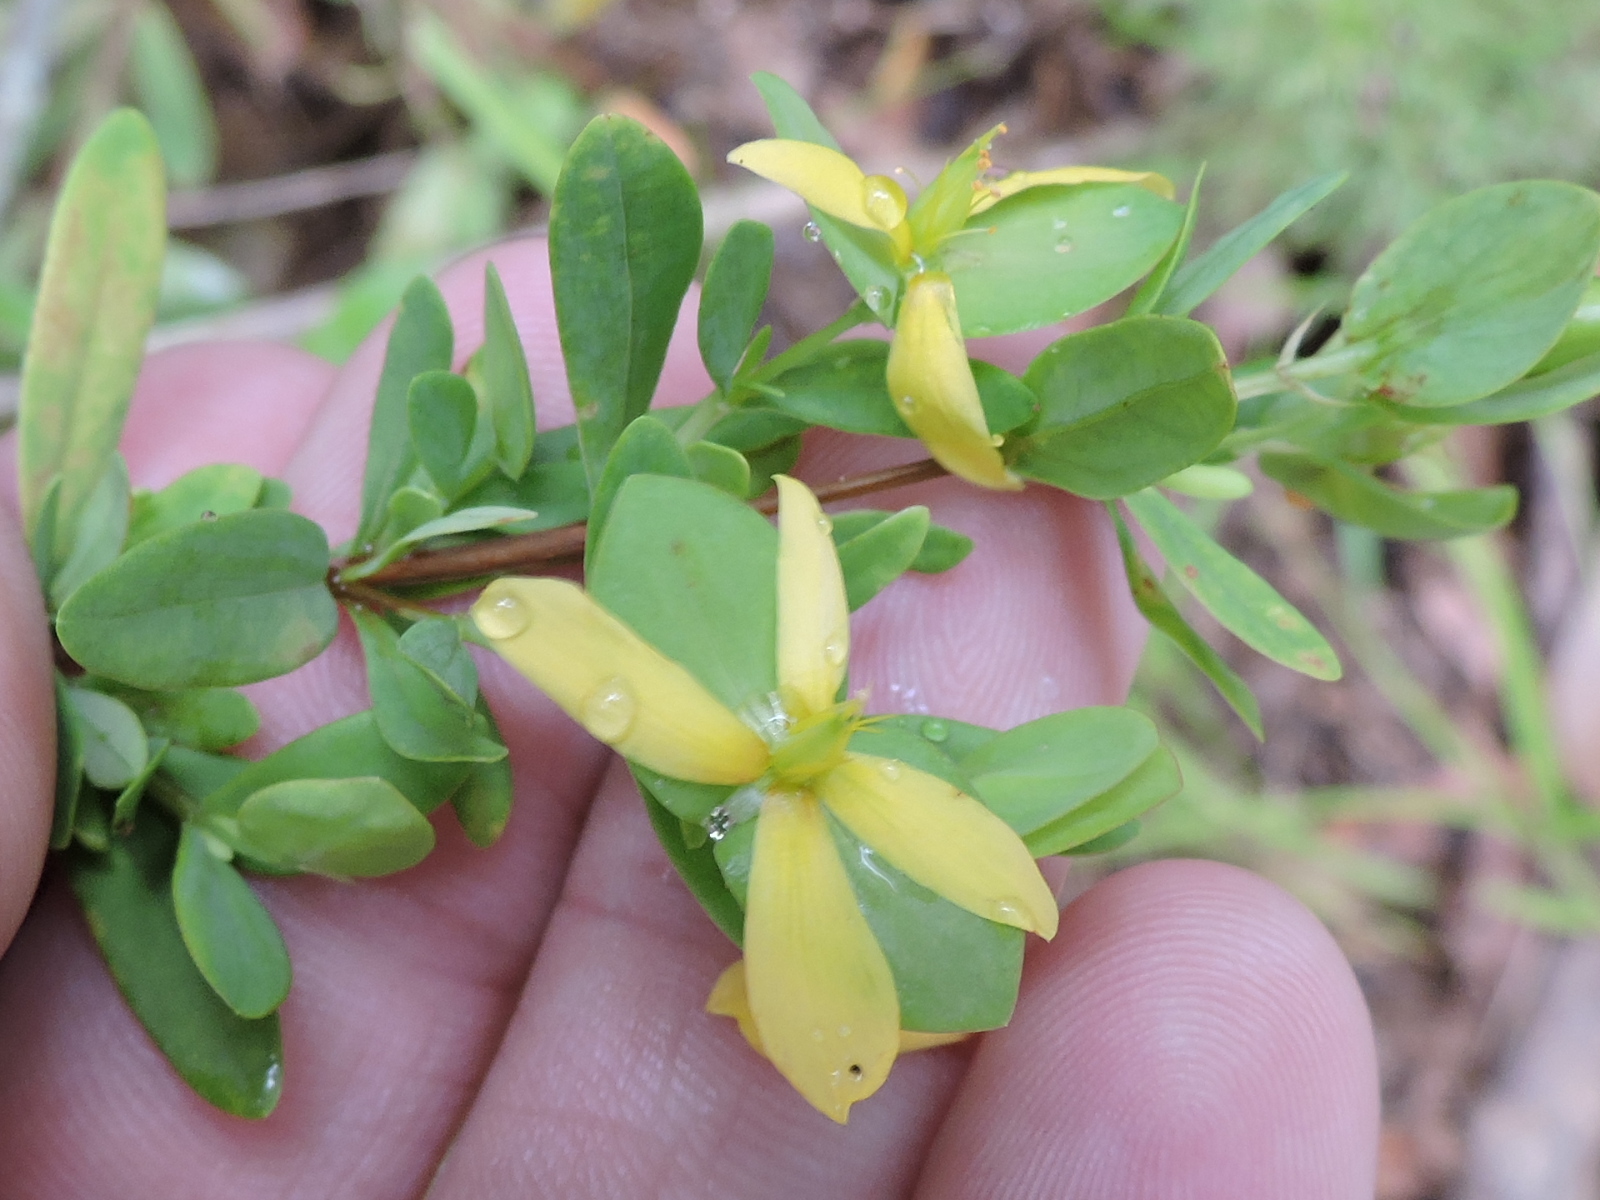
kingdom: Plantae
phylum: Tracheophyta
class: Magnoliopsida
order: Malpighiales
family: Hypericaceae
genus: Hypericum
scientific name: Hypericum hypericoides
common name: St. andrew's cross
